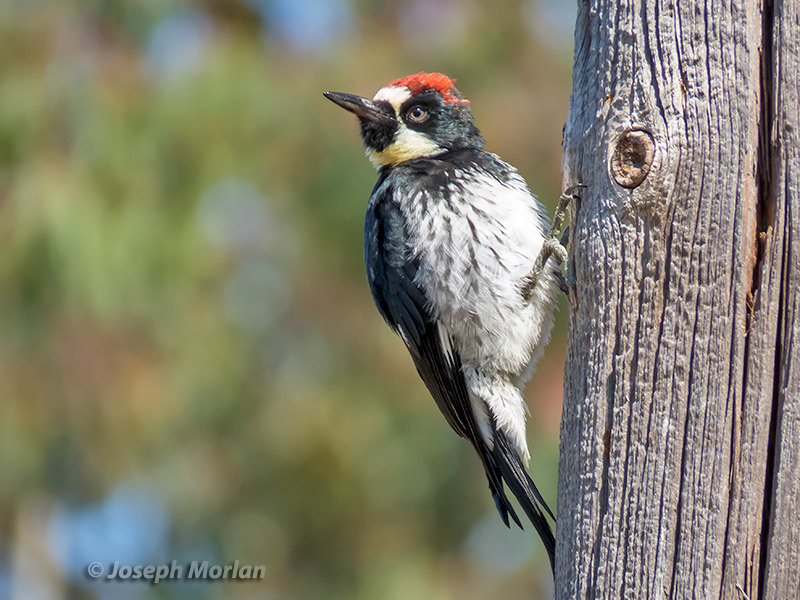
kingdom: Animalia
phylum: Chordata
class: Aves
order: Piciformes
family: Picidae
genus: Melanerpes
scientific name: Melanerpes formicivorus
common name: Acorn woodpecker
